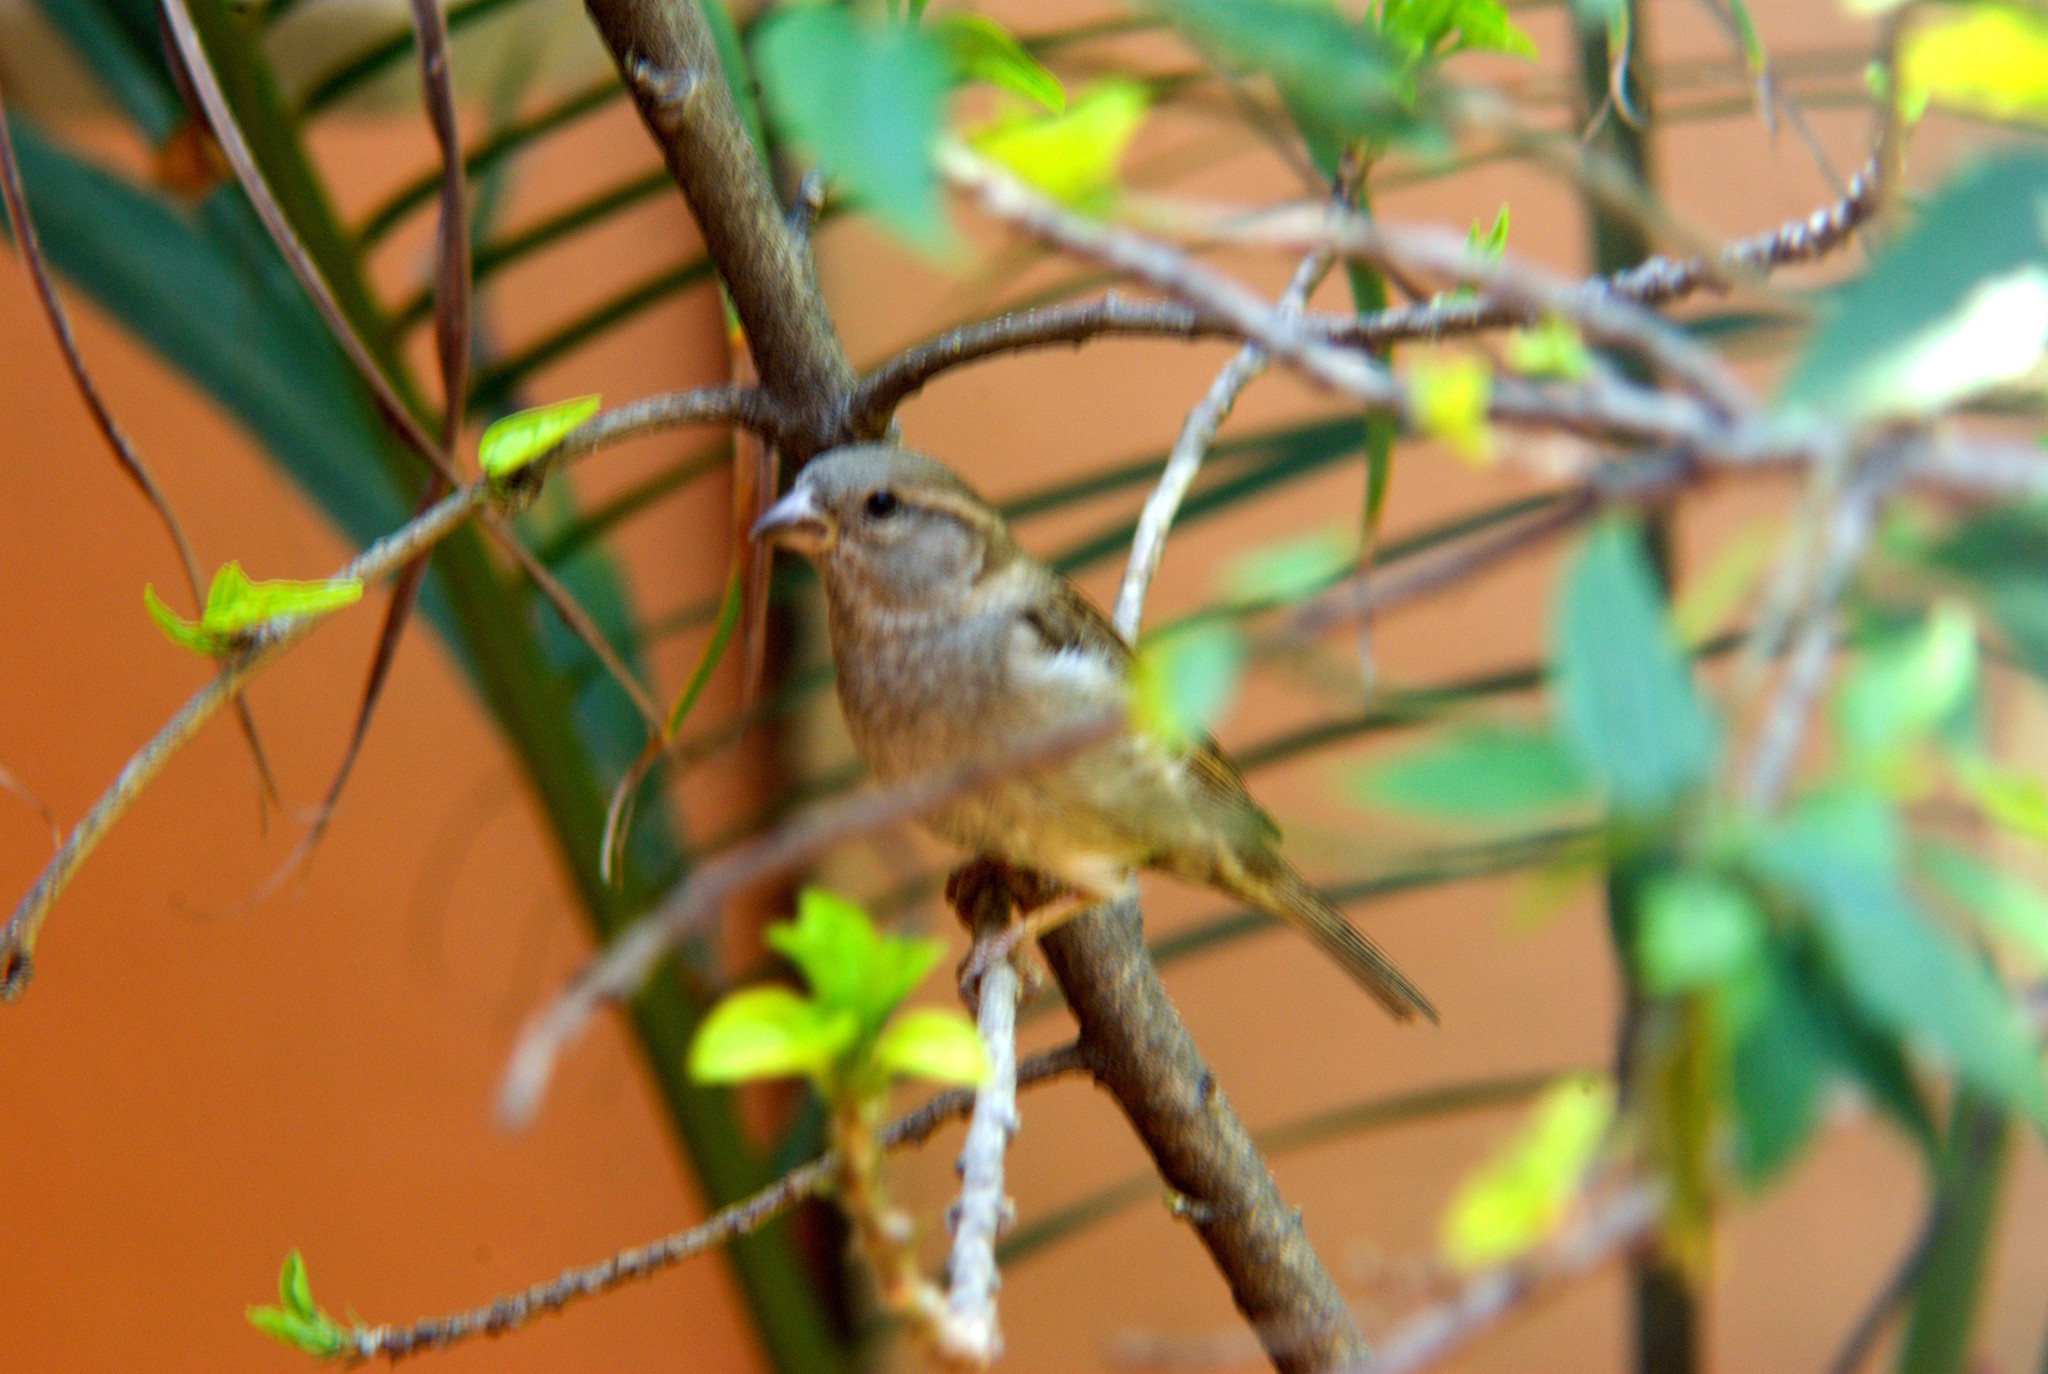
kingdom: Animalia
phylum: Chordata
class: Aves
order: Passeriformes
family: Passeridae
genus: Passer
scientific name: Passer domesticus
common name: House sparrow
